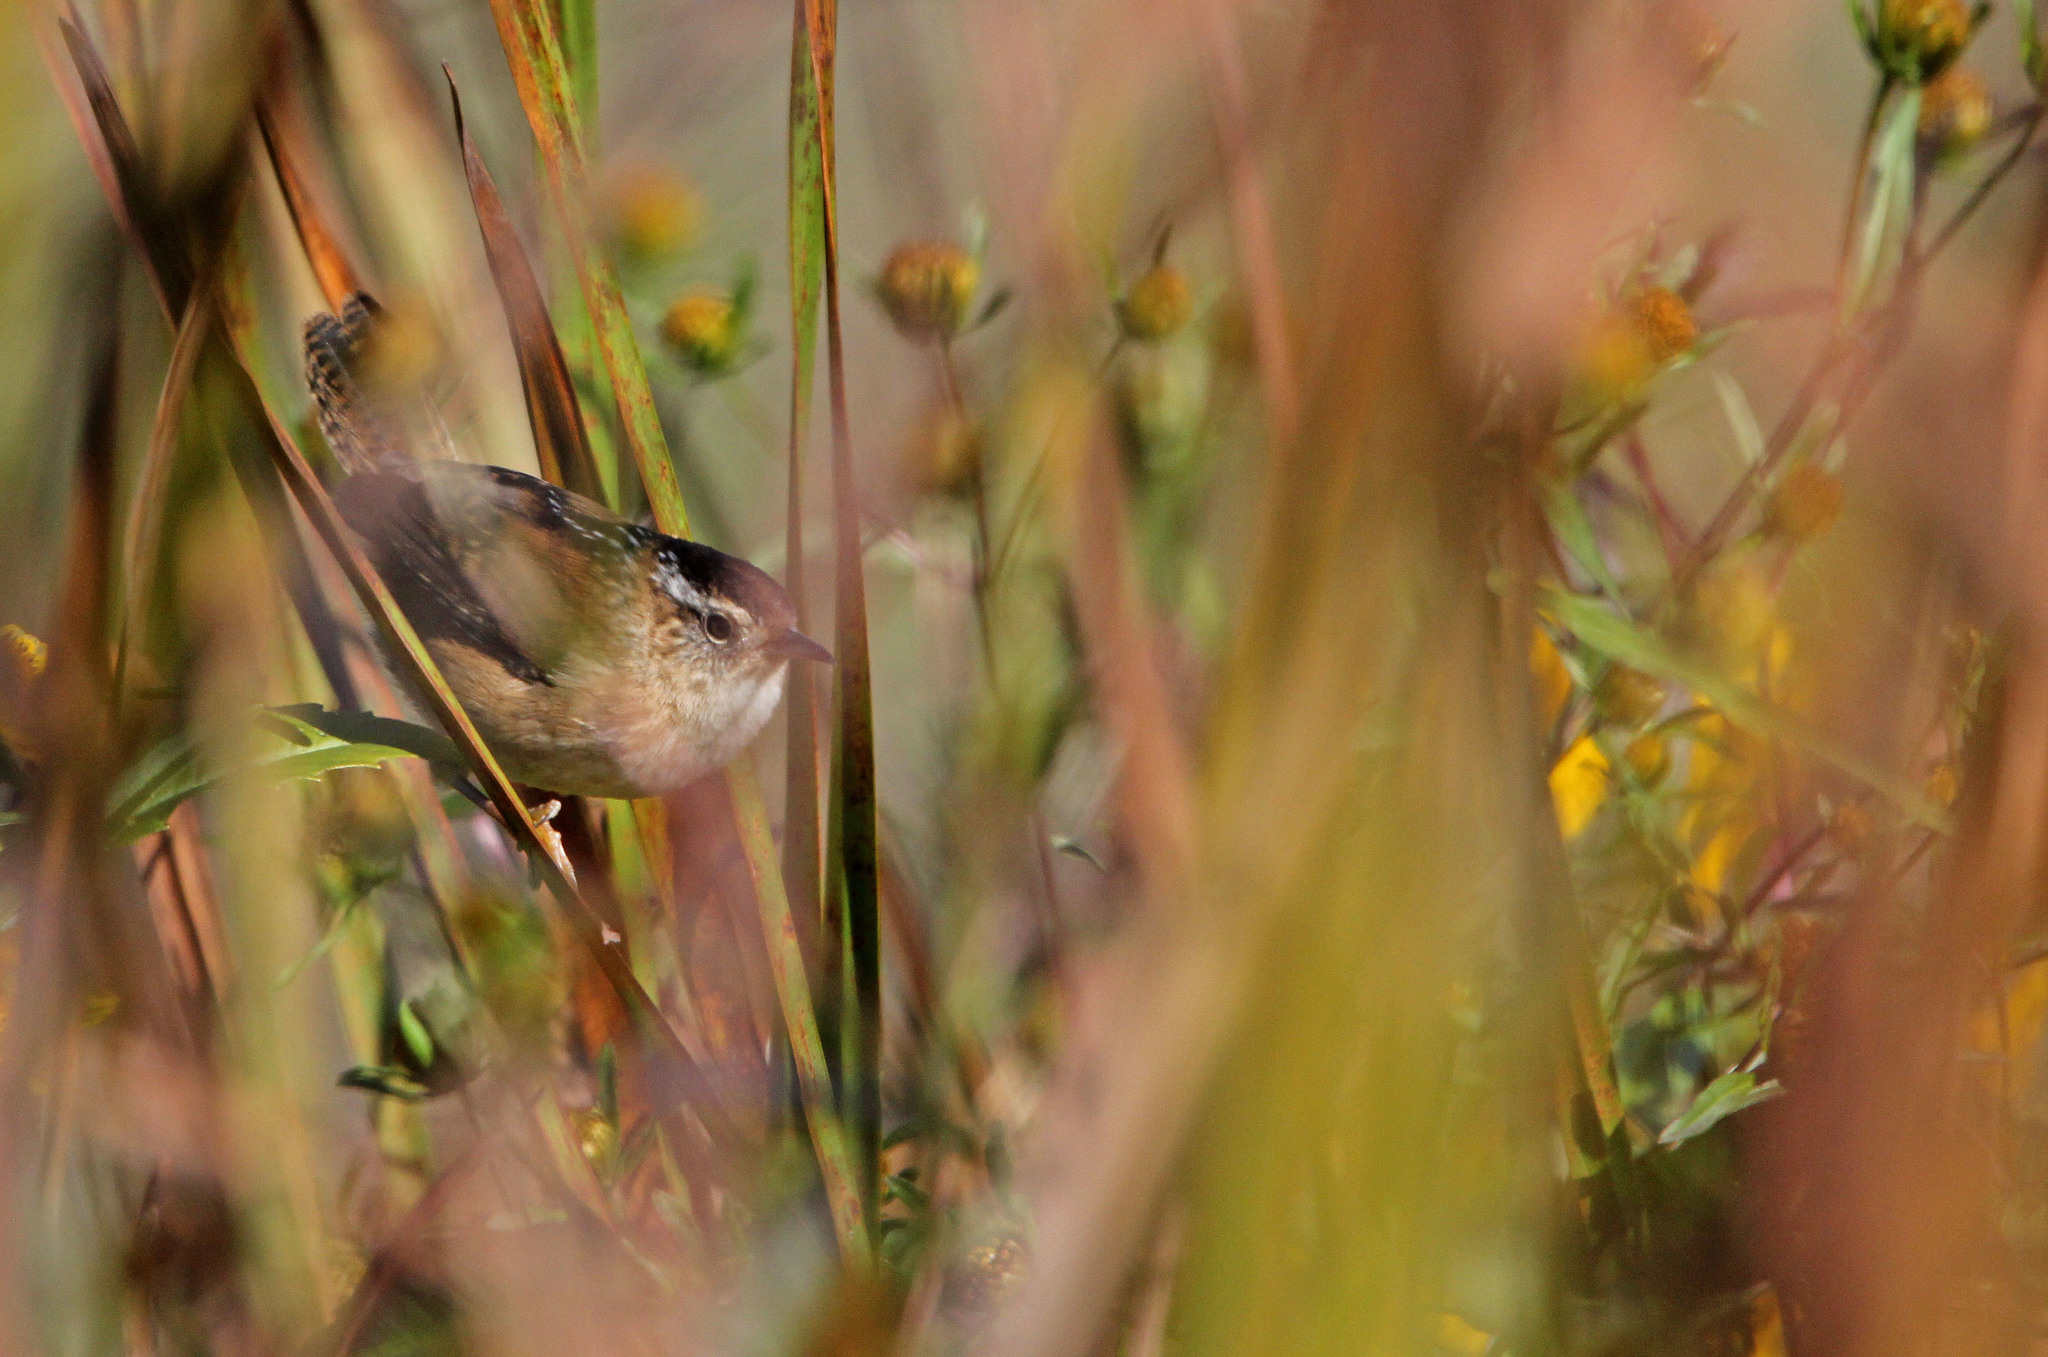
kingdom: Animalia
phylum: Chordata
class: Aves
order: Passeriformes
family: Troglodytidae
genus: Cistothorus
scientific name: Cistothorus palustris
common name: Marsh wren
